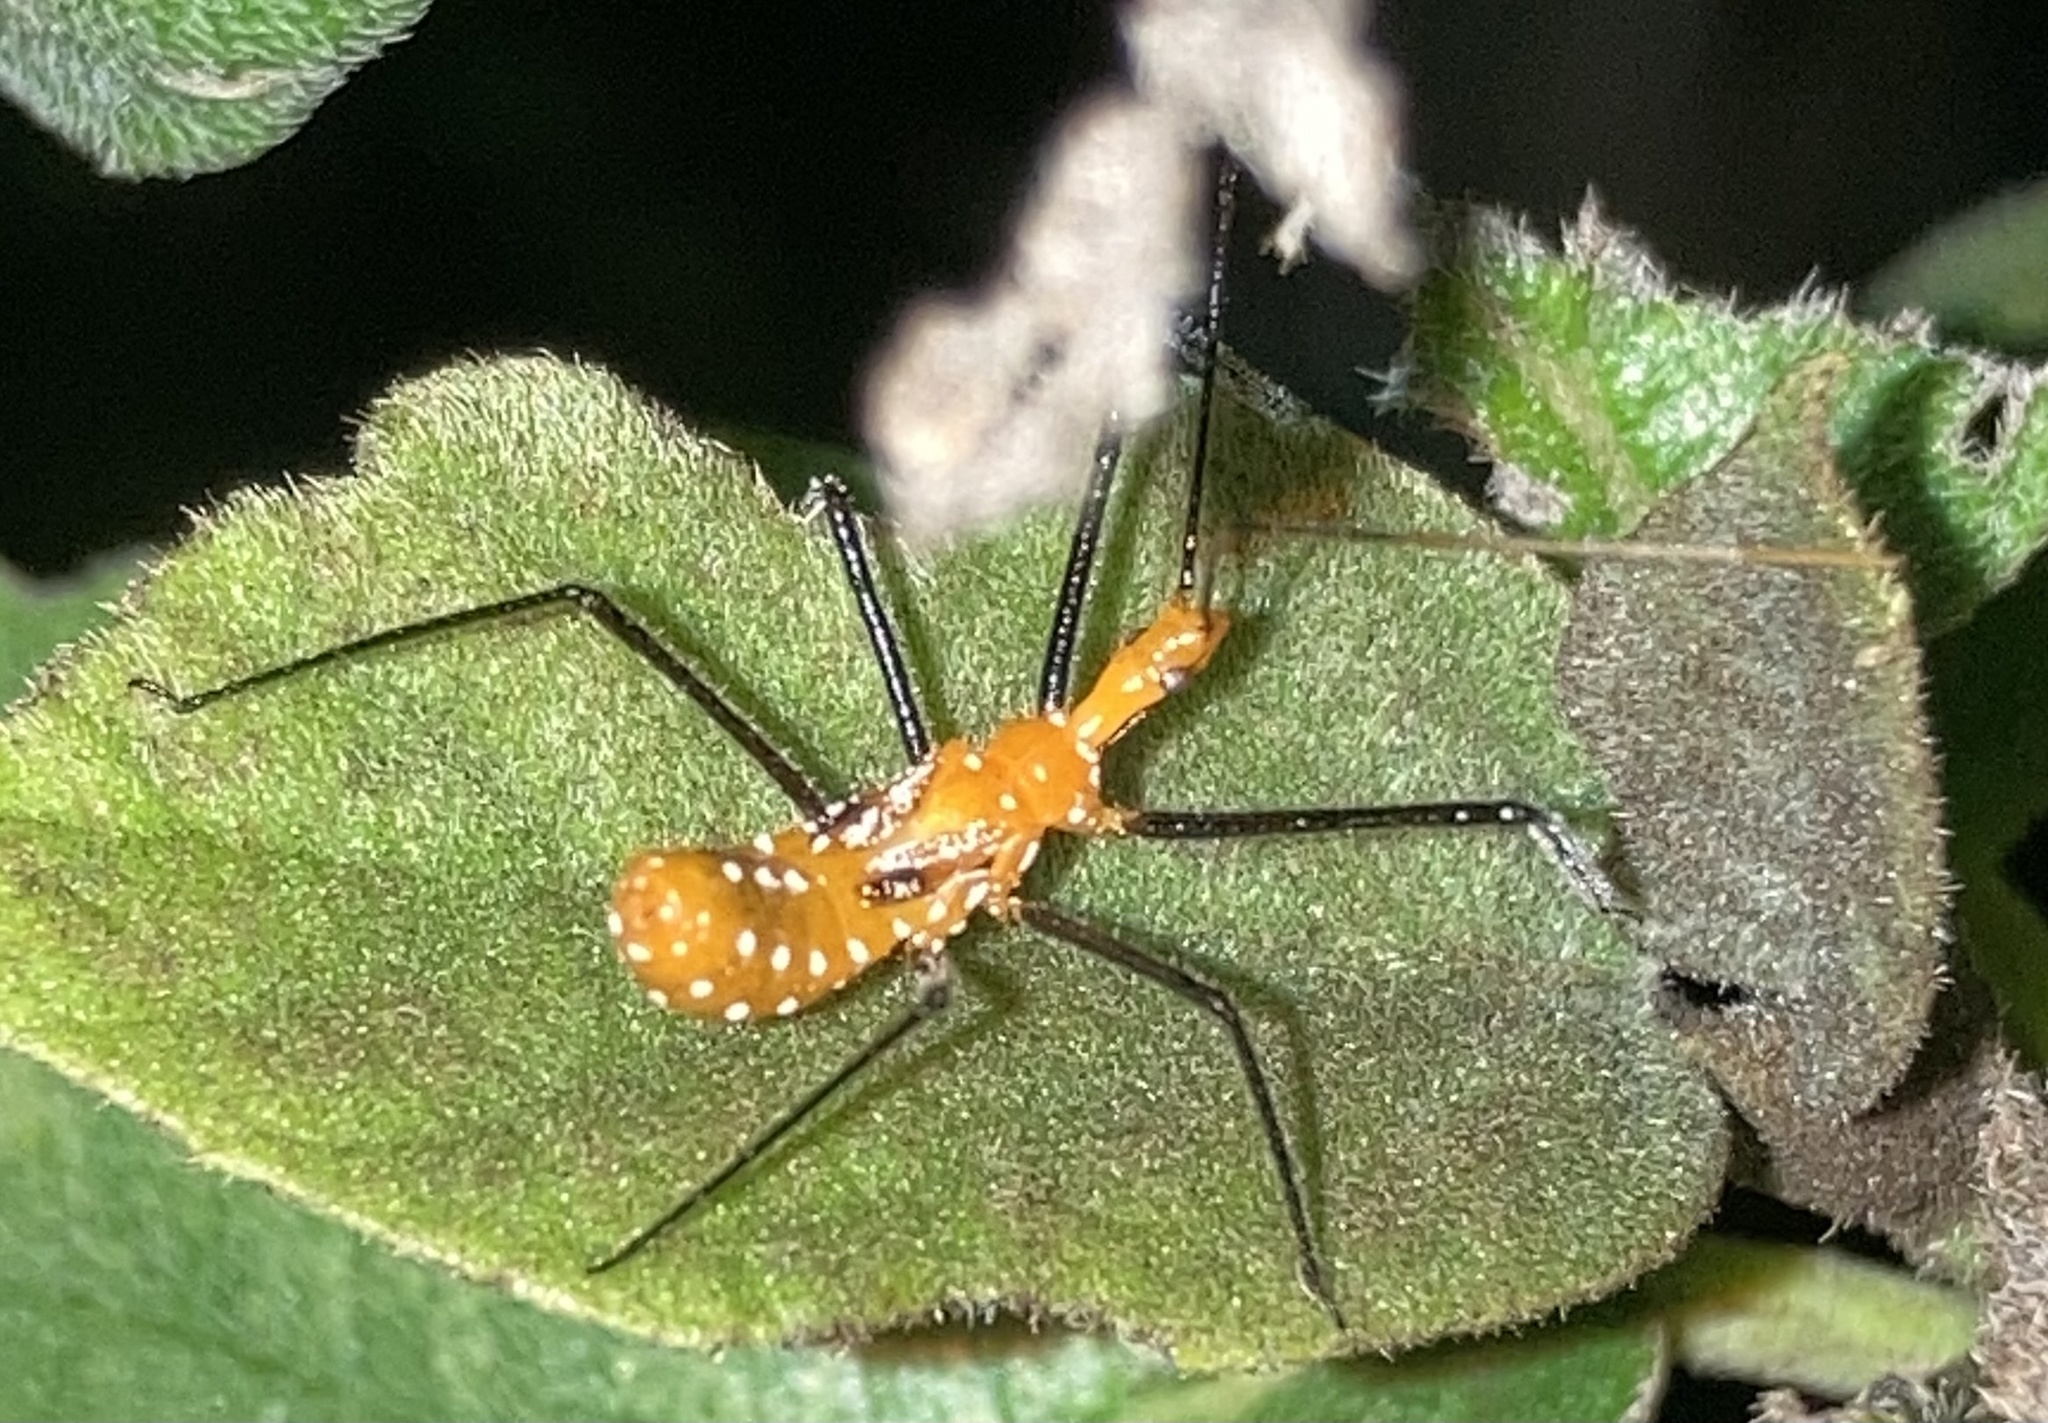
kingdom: Animalia
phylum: Arthropoda
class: Insecta
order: Hemiptera
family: Reduviidae
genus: Zelus
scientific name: Zelus longipes
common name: Milkweed assassin bug
